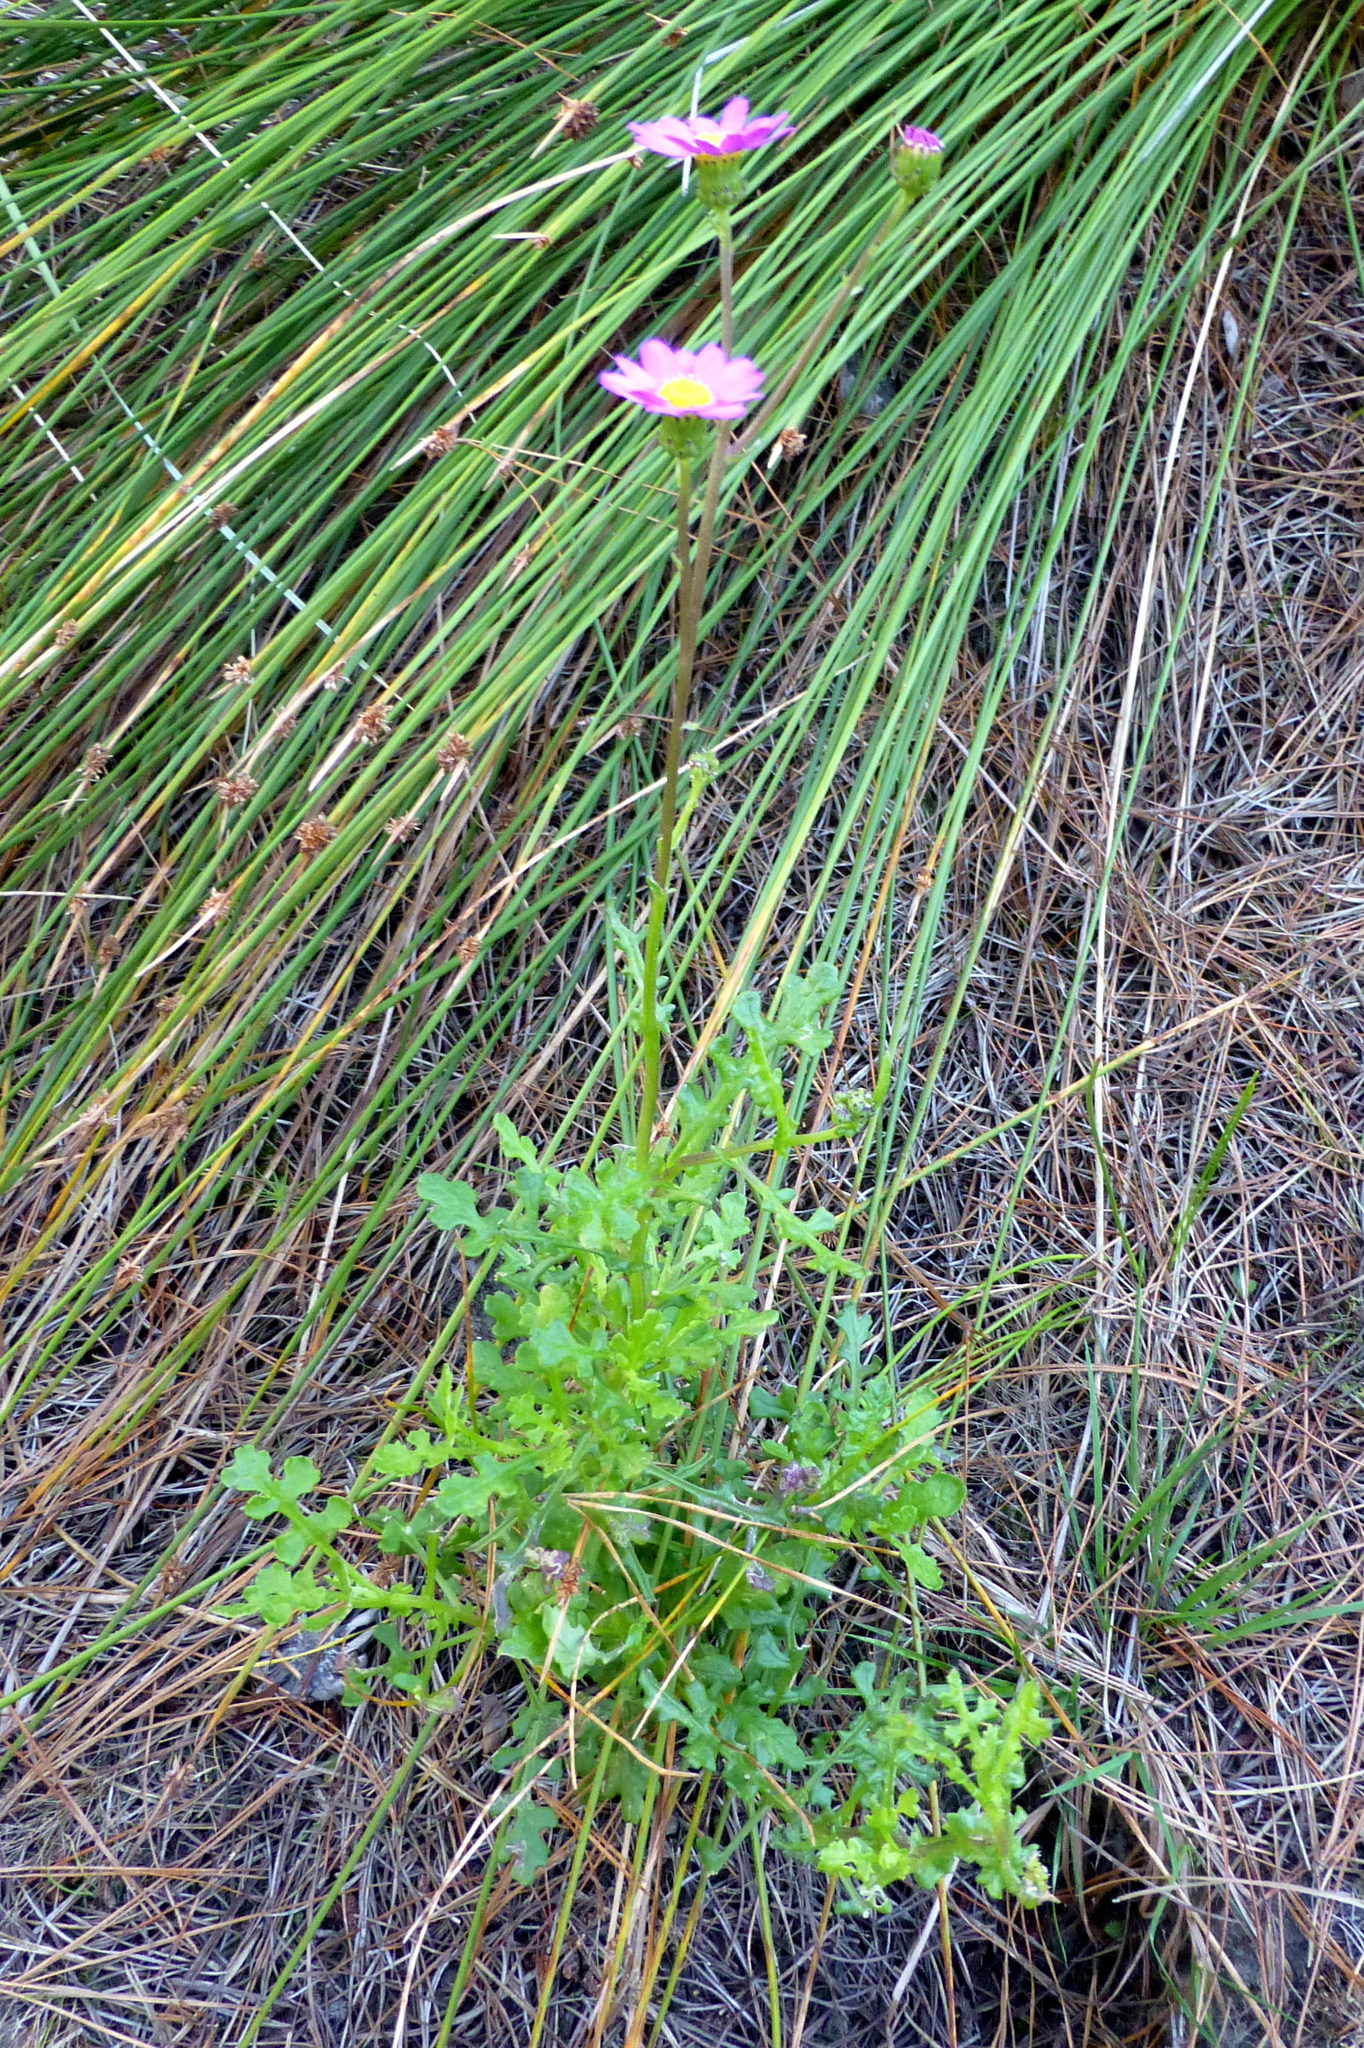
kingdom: Plantae
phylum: Tracheophyta
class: Magnoliopsida
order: Asterales
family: Asteraceae
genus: Senecio
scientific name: Senecio elegans
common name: Purple groundsel
